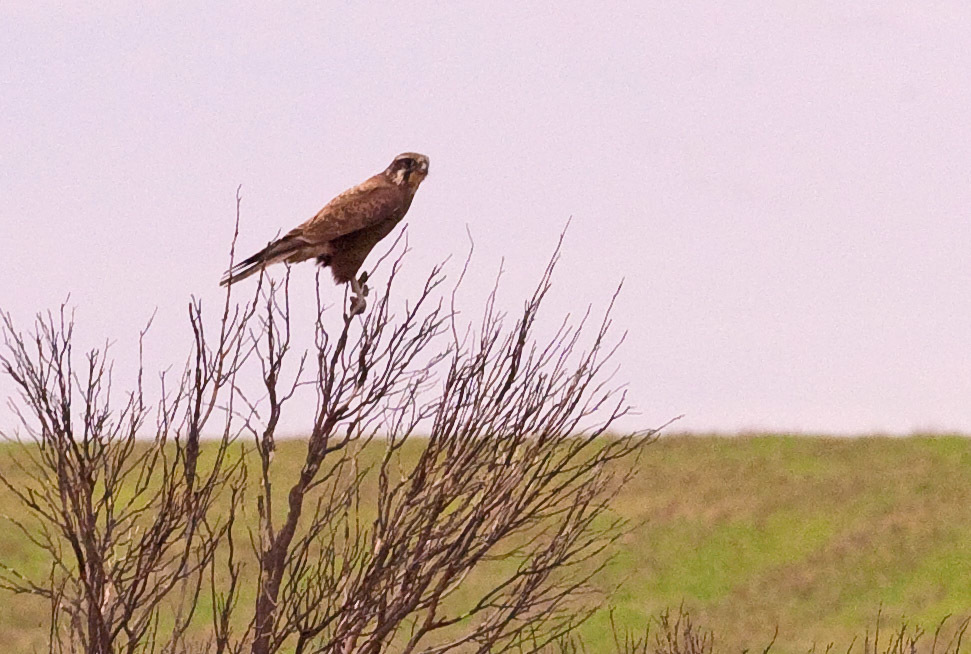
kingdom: Animalia
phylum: Chordata
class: Aves
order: Falconiformes
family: Falconidae
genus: Falco
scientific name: Falco berigora
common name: Brown falcon
